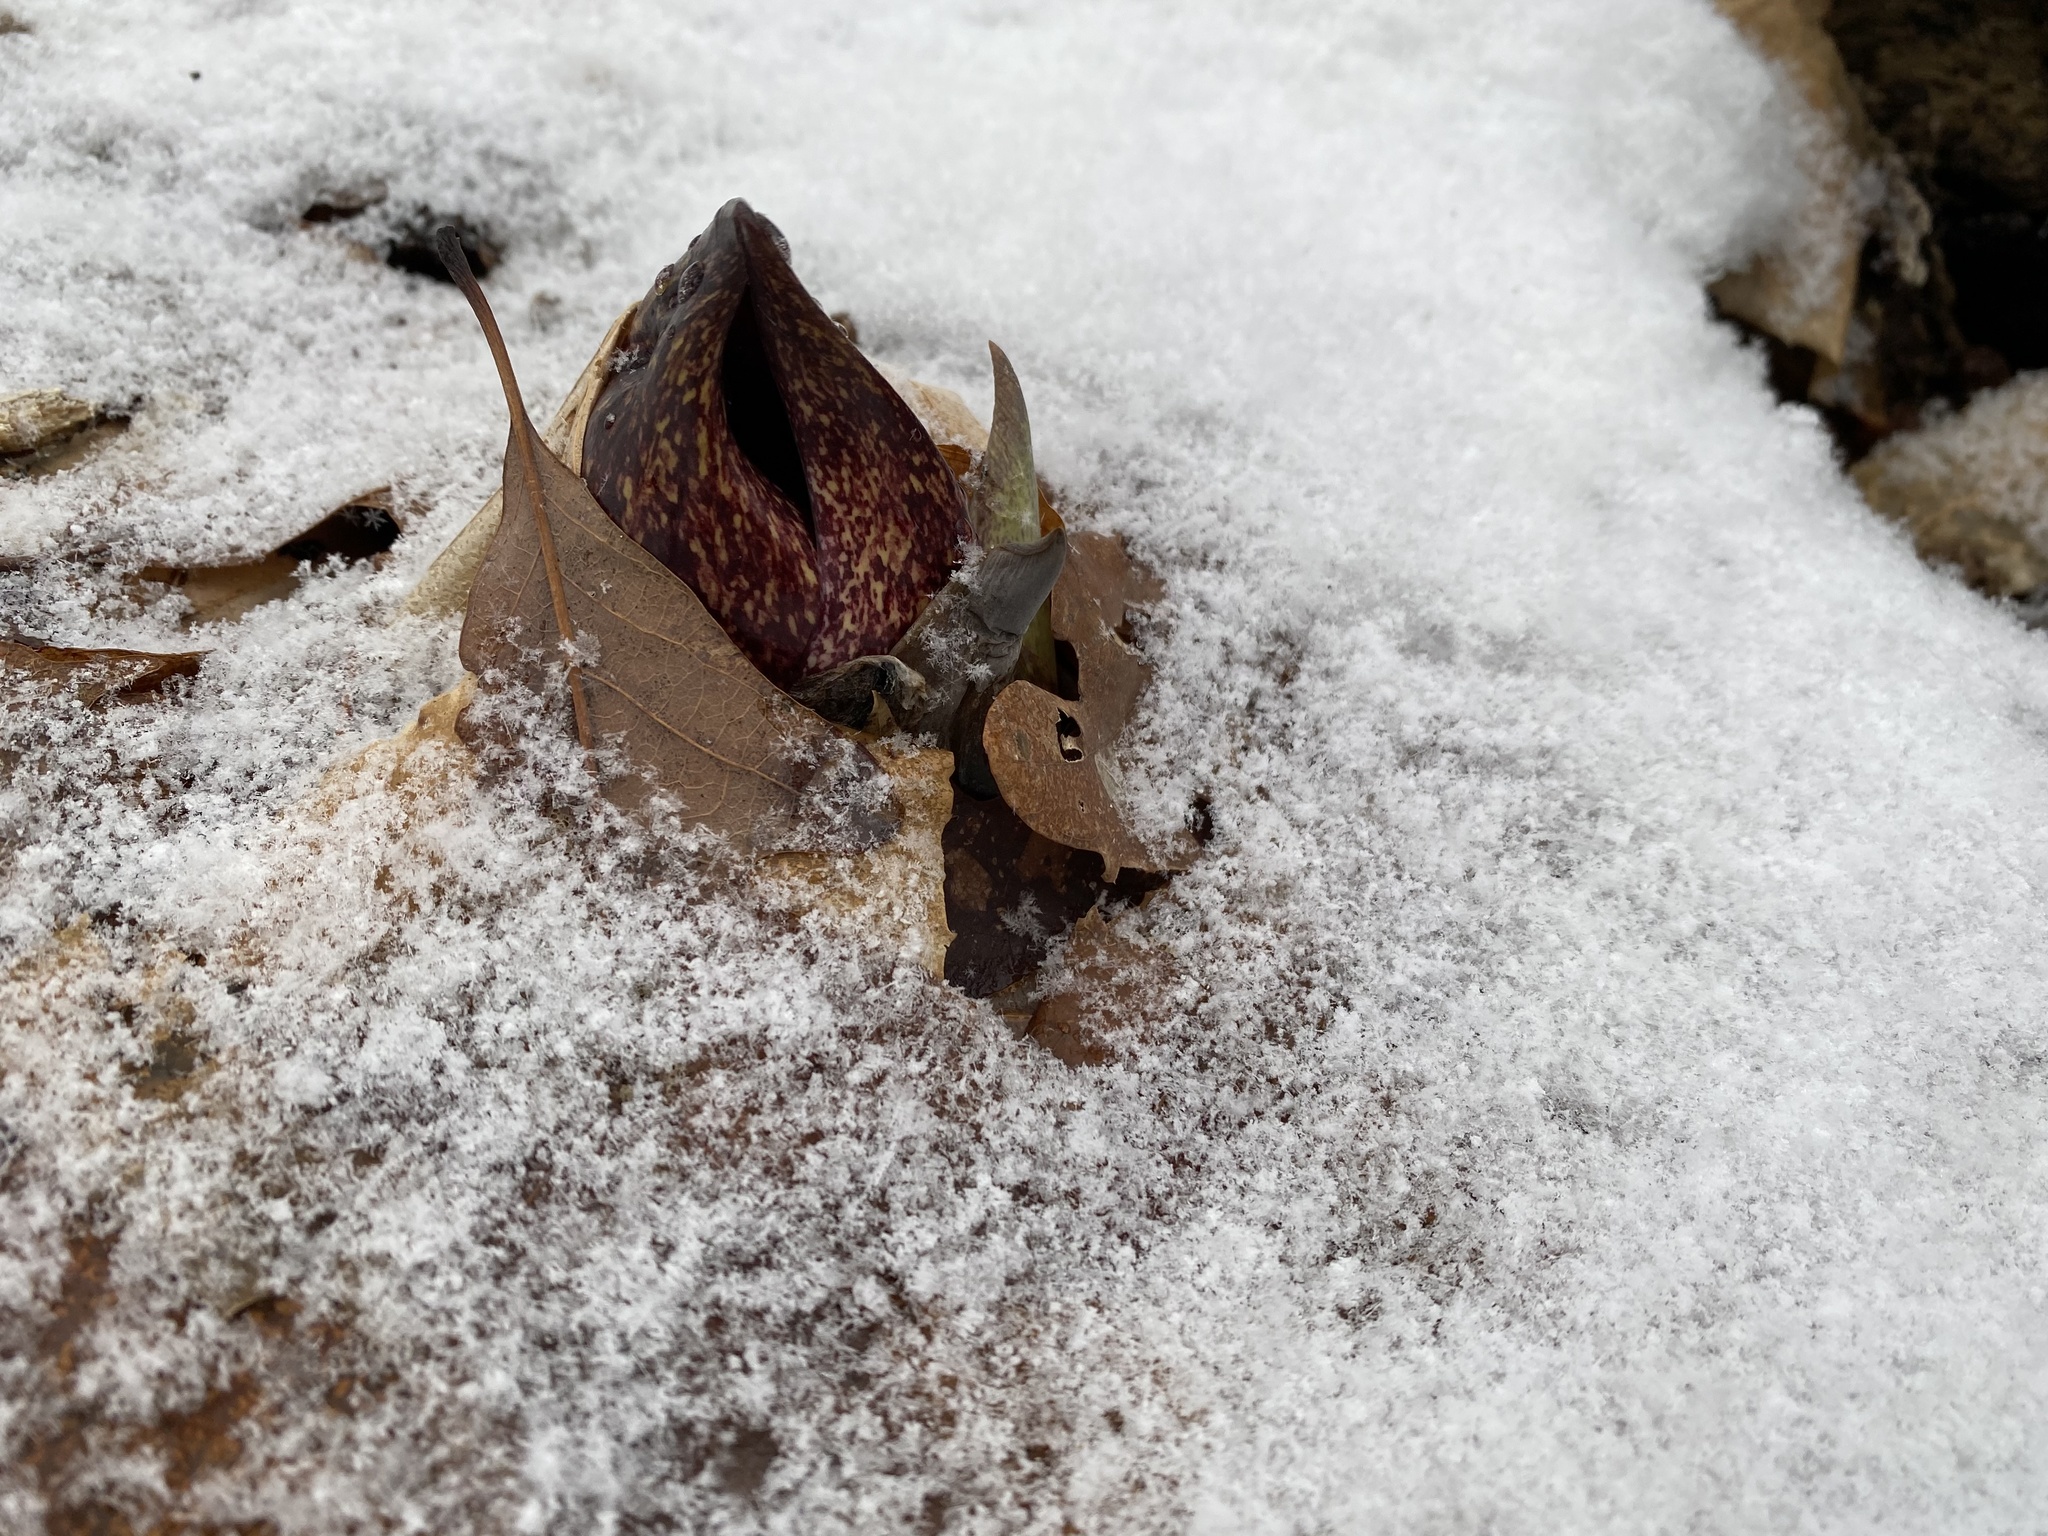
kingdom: Plantae
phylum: Tracheophyta
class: Liliopsida
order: Alismatales
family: Araceae
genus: Symplocarpus
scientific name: Symplocarpus foetidus
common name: Eastern skunk cabbage
